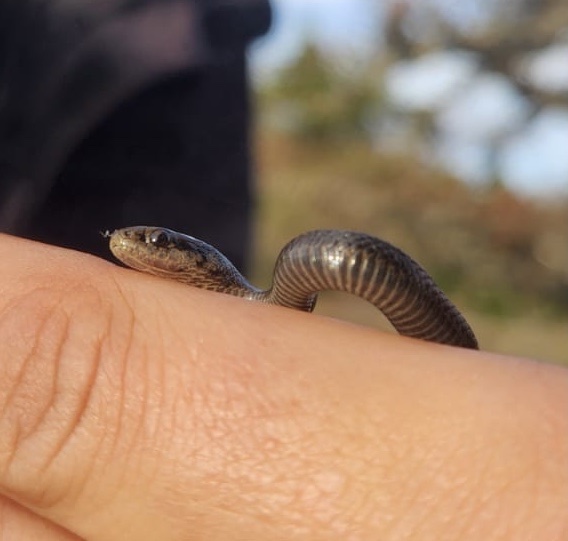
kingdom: Animalia
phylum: Chordata
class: Squamata
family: Colubridae
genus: Thamnophis
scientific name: Thamnophis ordinoides
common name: Northwestern garter snake
